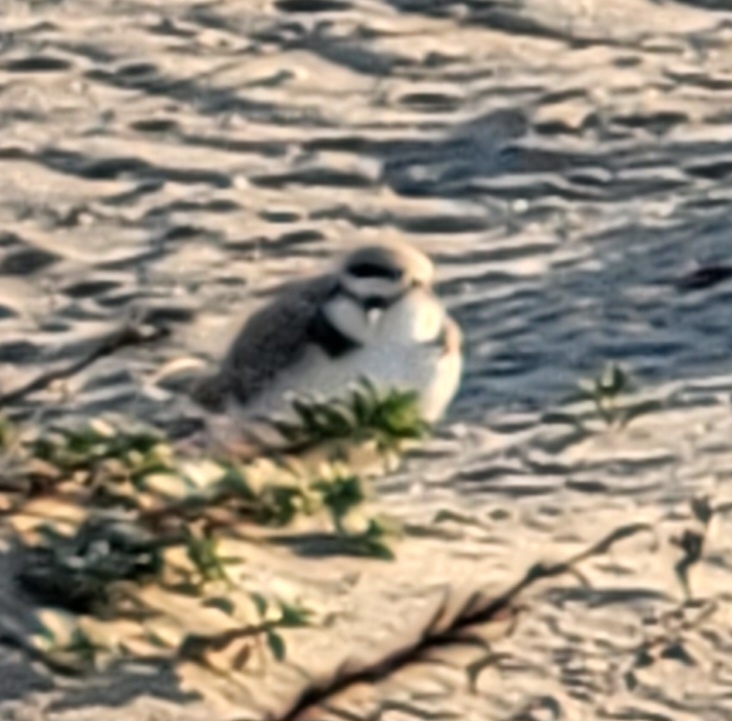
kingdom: Animalia
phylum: Chordata
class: Aves
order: Charadriiformes
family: Charadriidae
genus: Anarhynchus
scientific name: Anarhynchus
